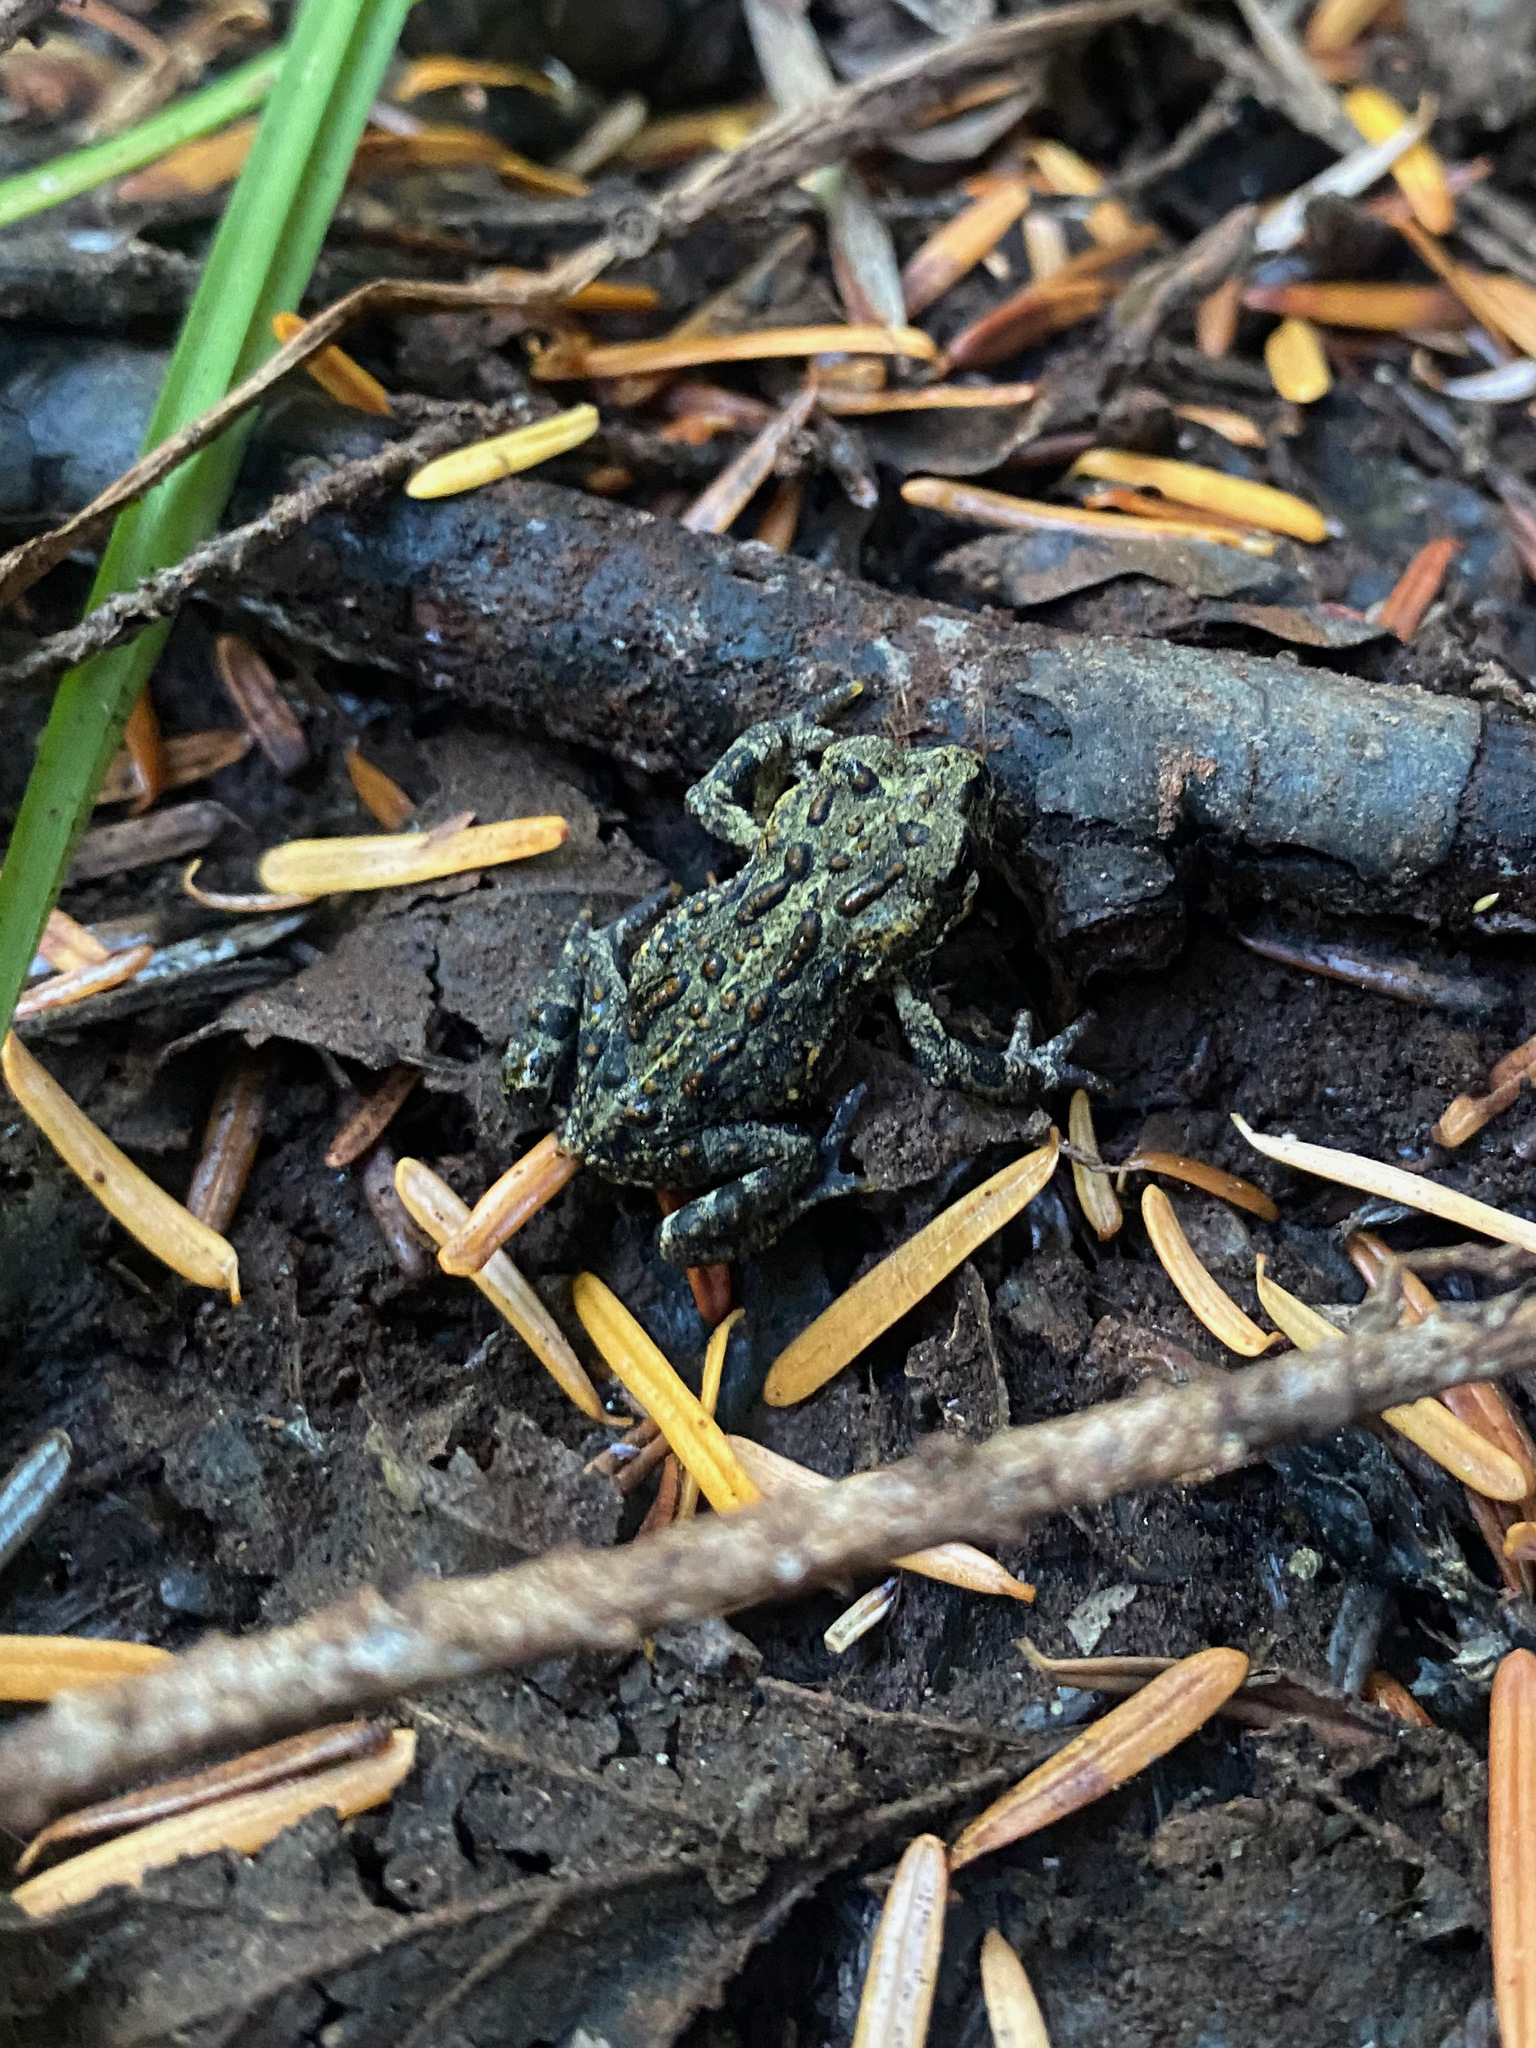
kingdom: Animalia
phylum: Chordata
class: Amphibia
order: Anura
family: Bufonidae
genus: Anaxyrus
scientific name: Anaxyrus boreas
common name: Western toad
